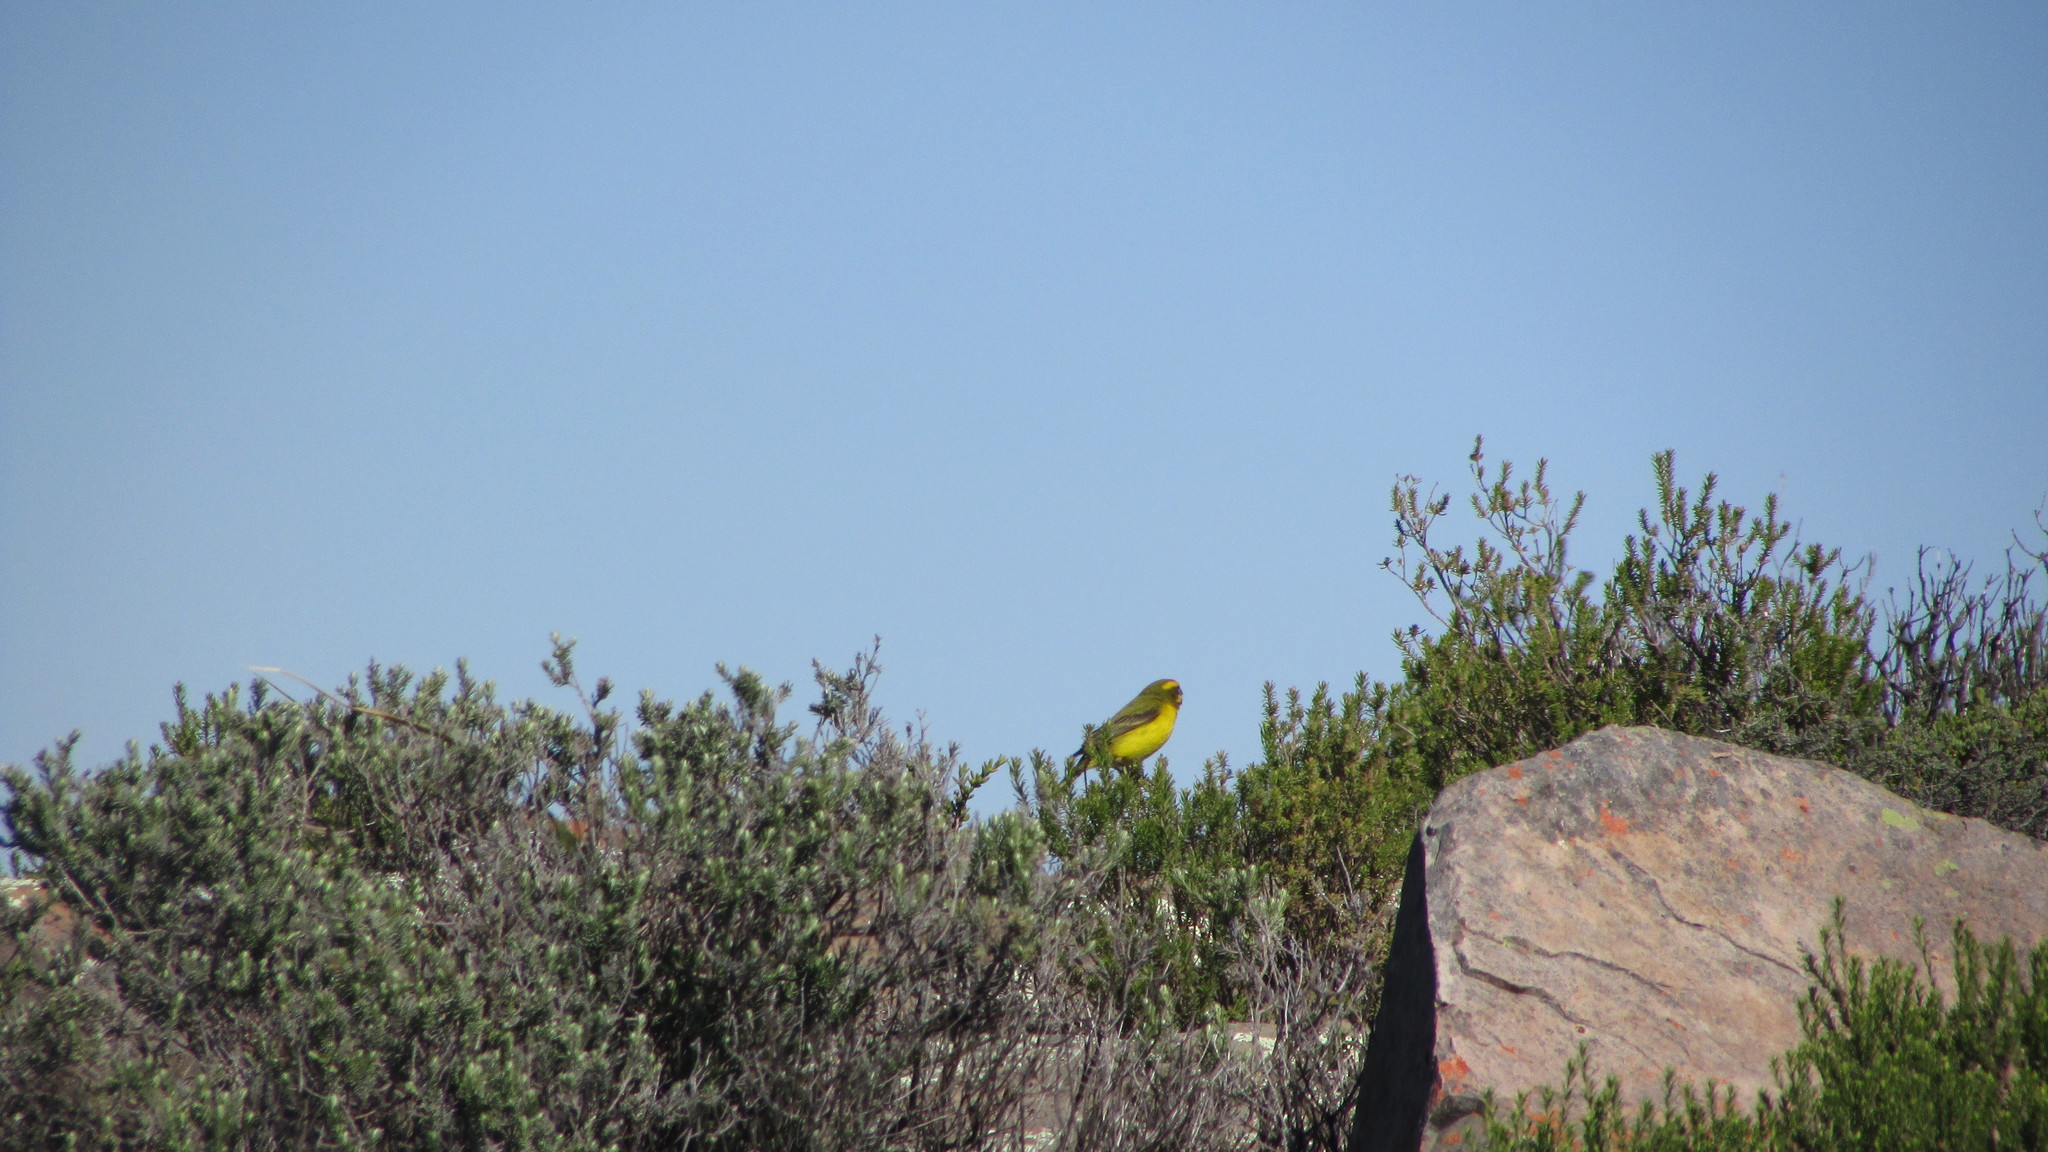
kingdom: Animalia
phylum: Chordata
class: Aves
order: Passeriformes
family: Fringillidae
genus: Crithagra
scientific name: Crithagra flaviventris
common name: Yellow canary
